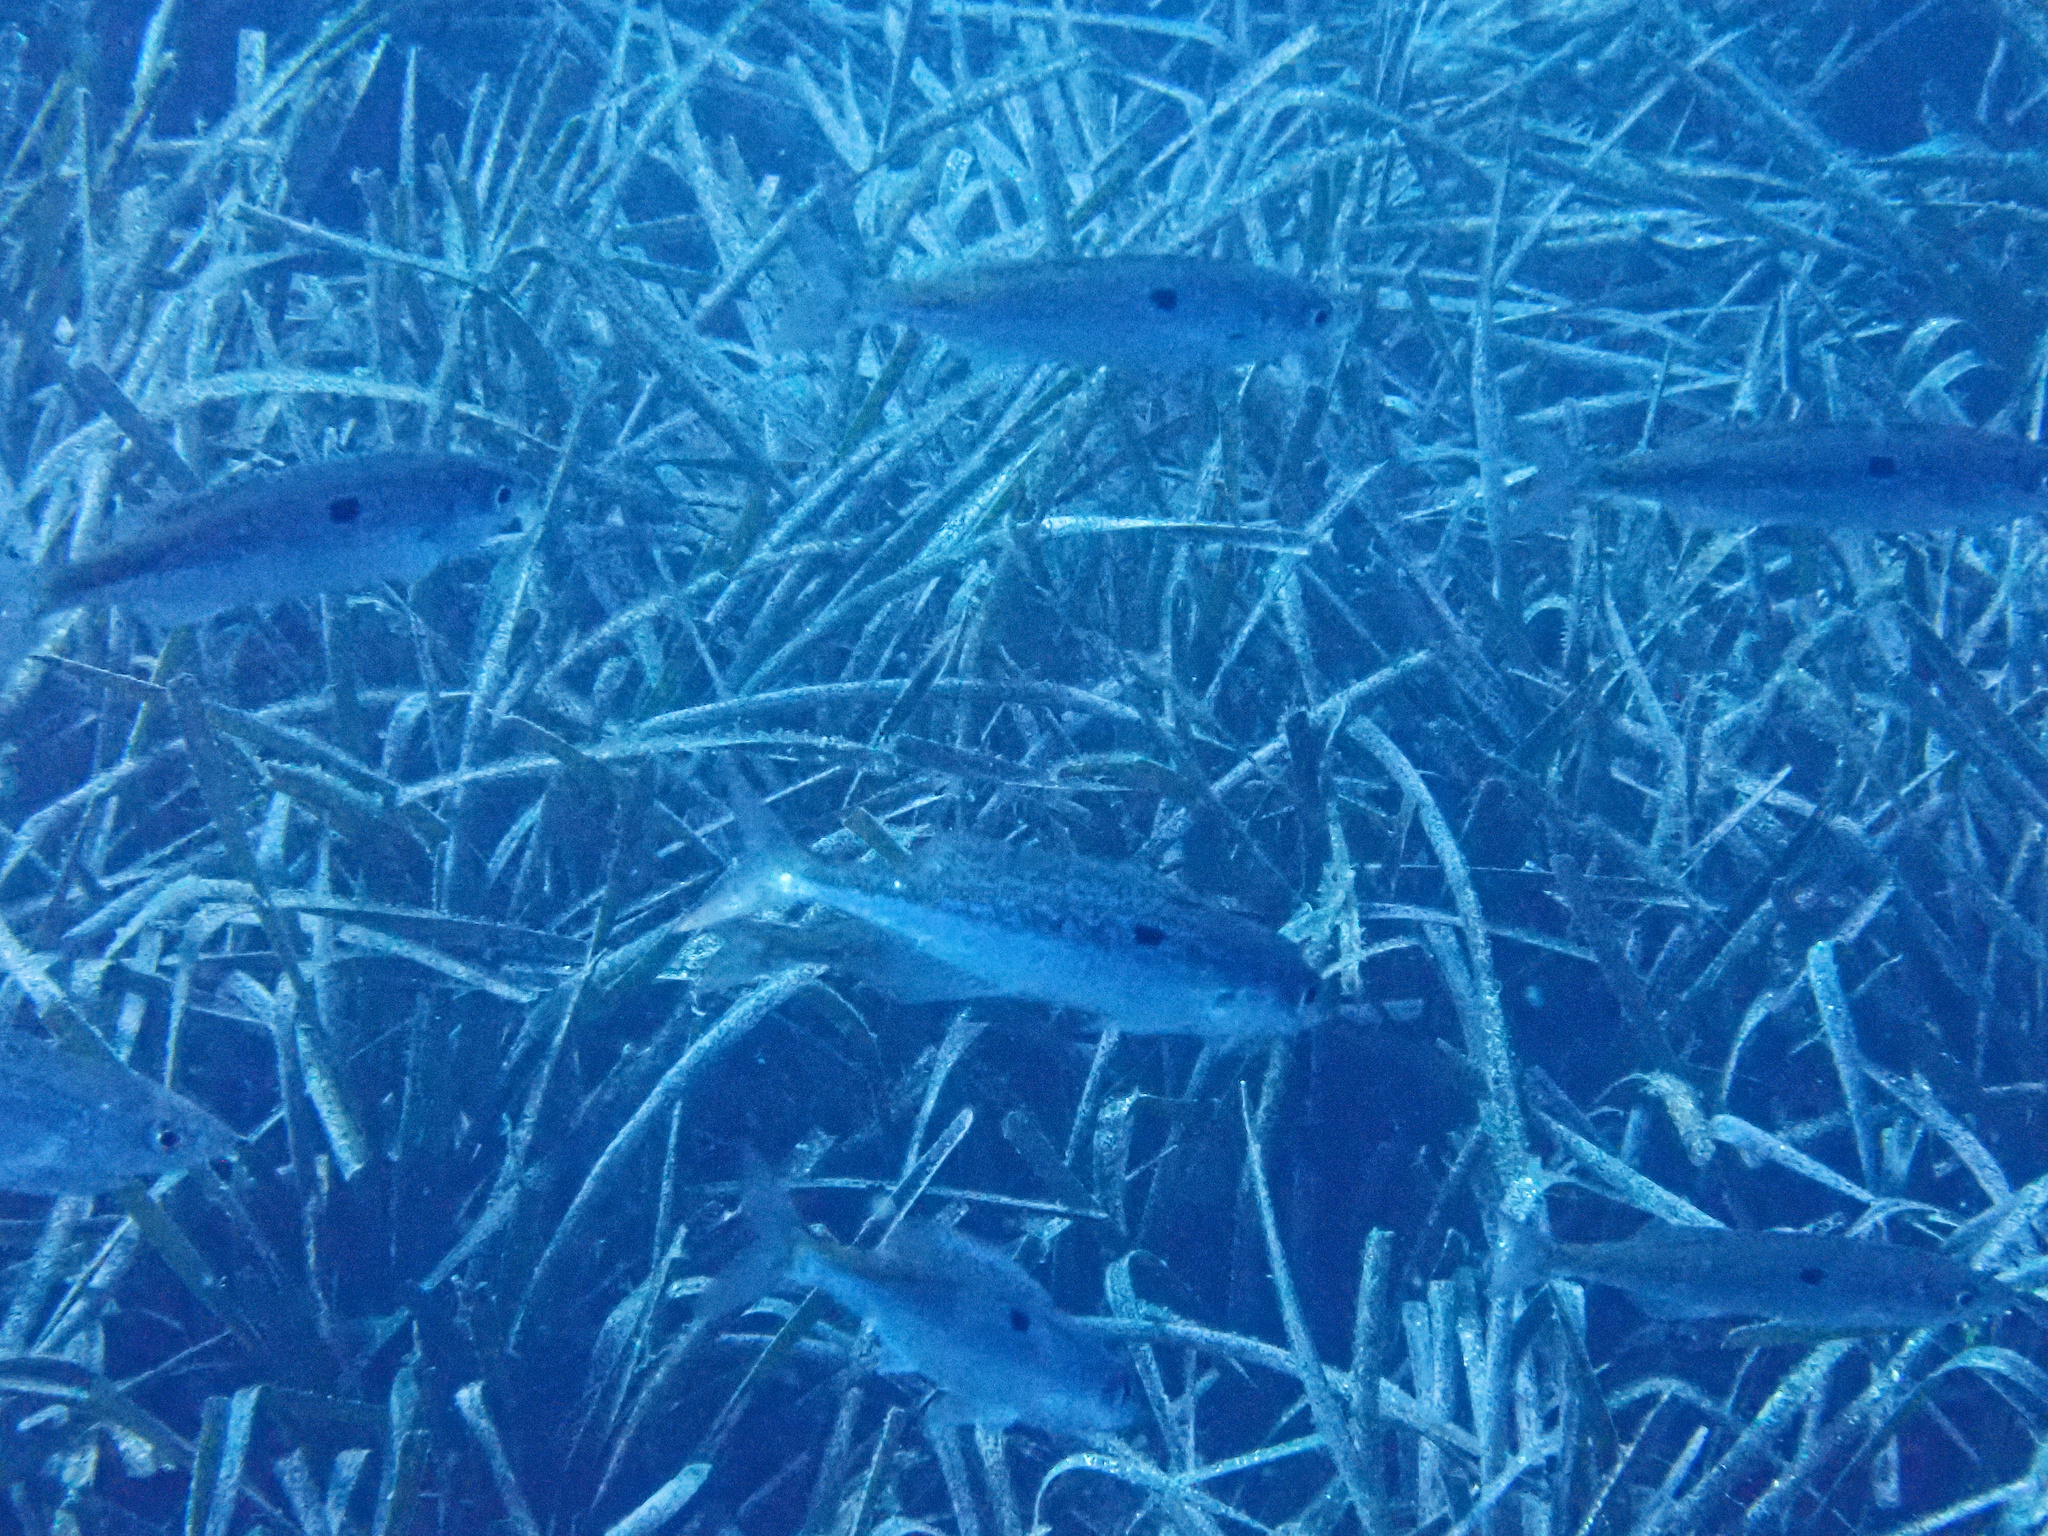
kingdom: Animalia
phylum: Chordata
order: Perciformes
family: Sparidae
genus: Spicara
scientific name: Spicara smaris
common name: Picarel
